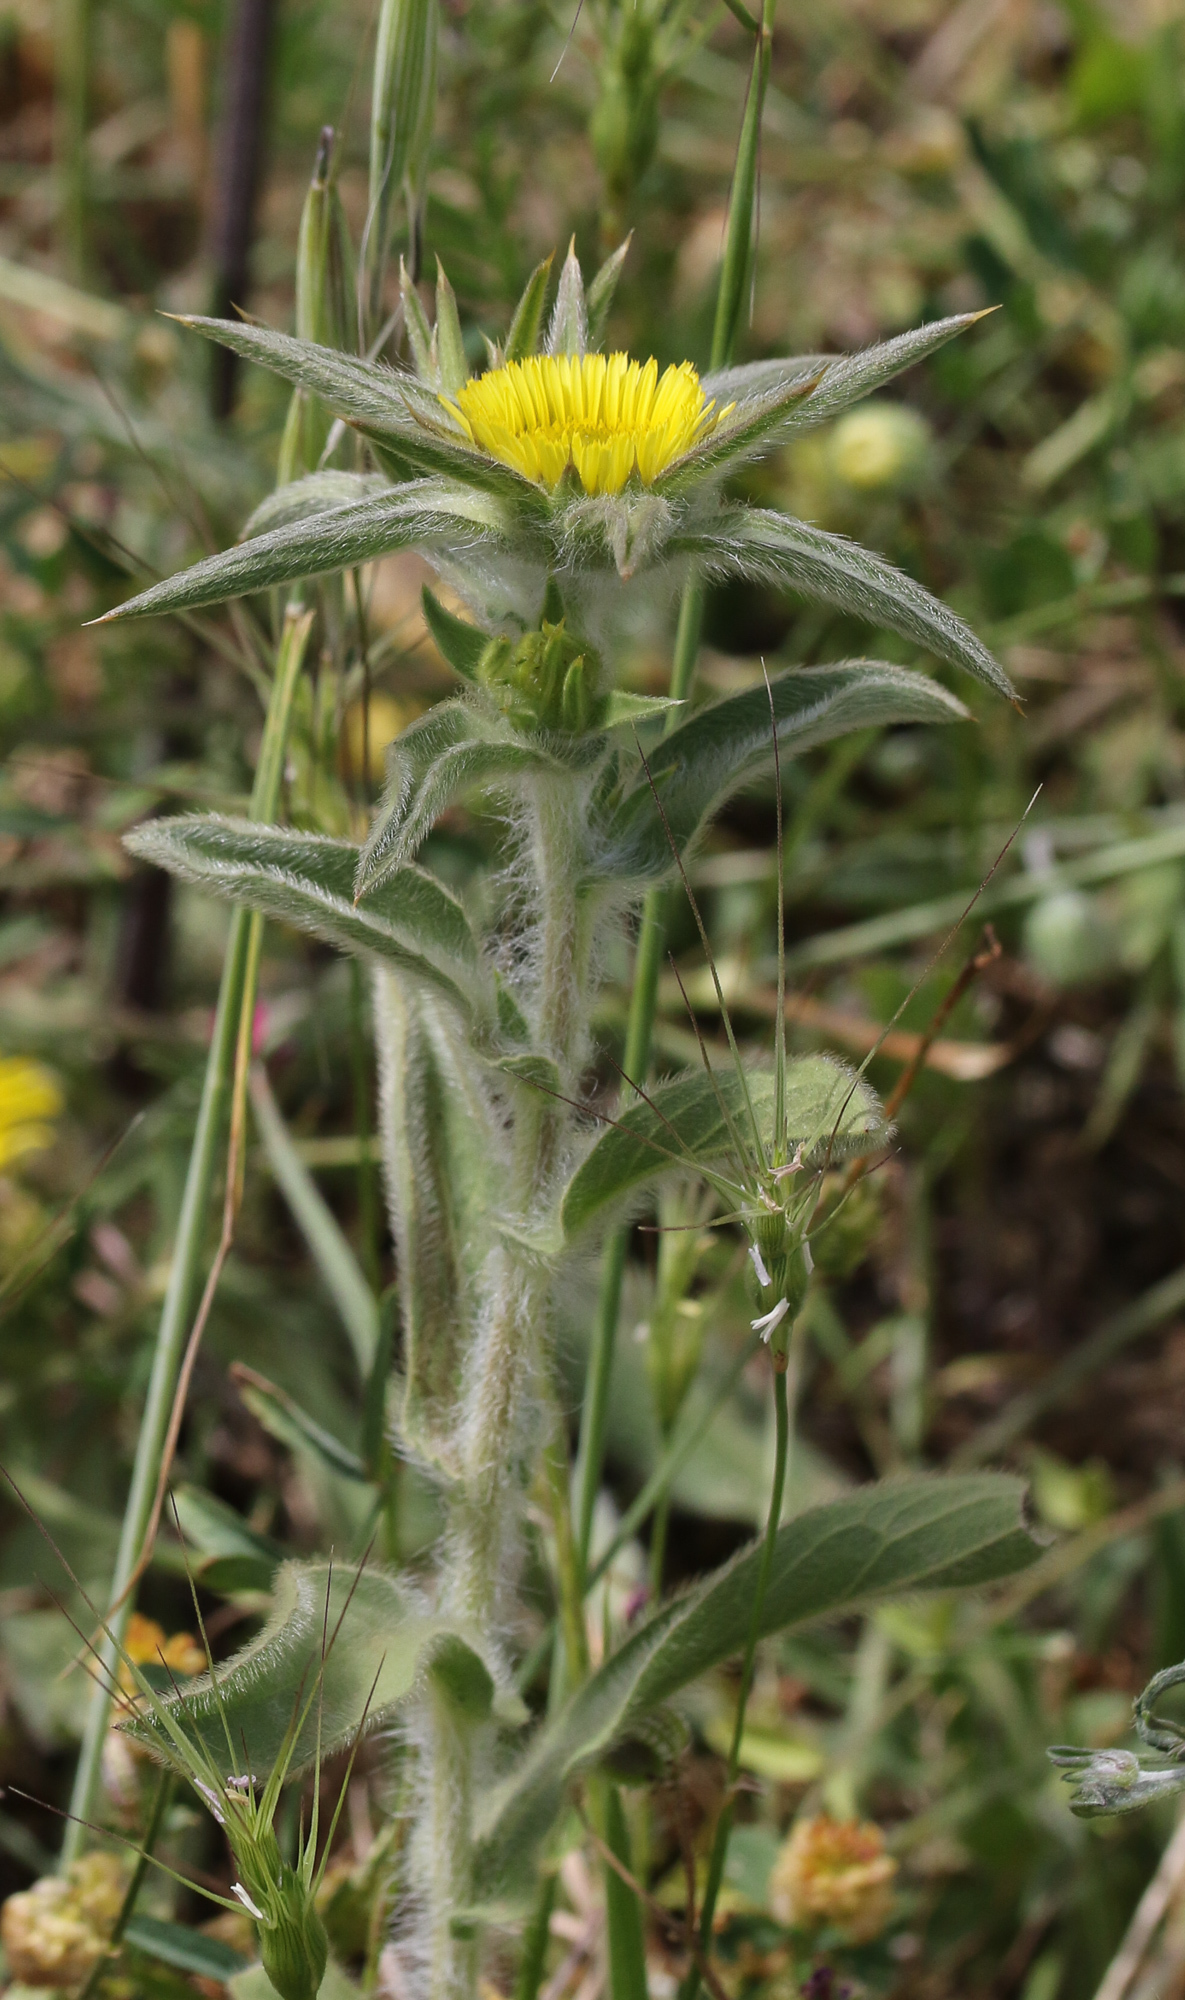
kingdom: Plantae
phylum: Tracheophyta
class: Magnoliopsida
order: Asterales
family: Asteraceae
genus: Pallenis
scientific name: Pallenis spinosa
